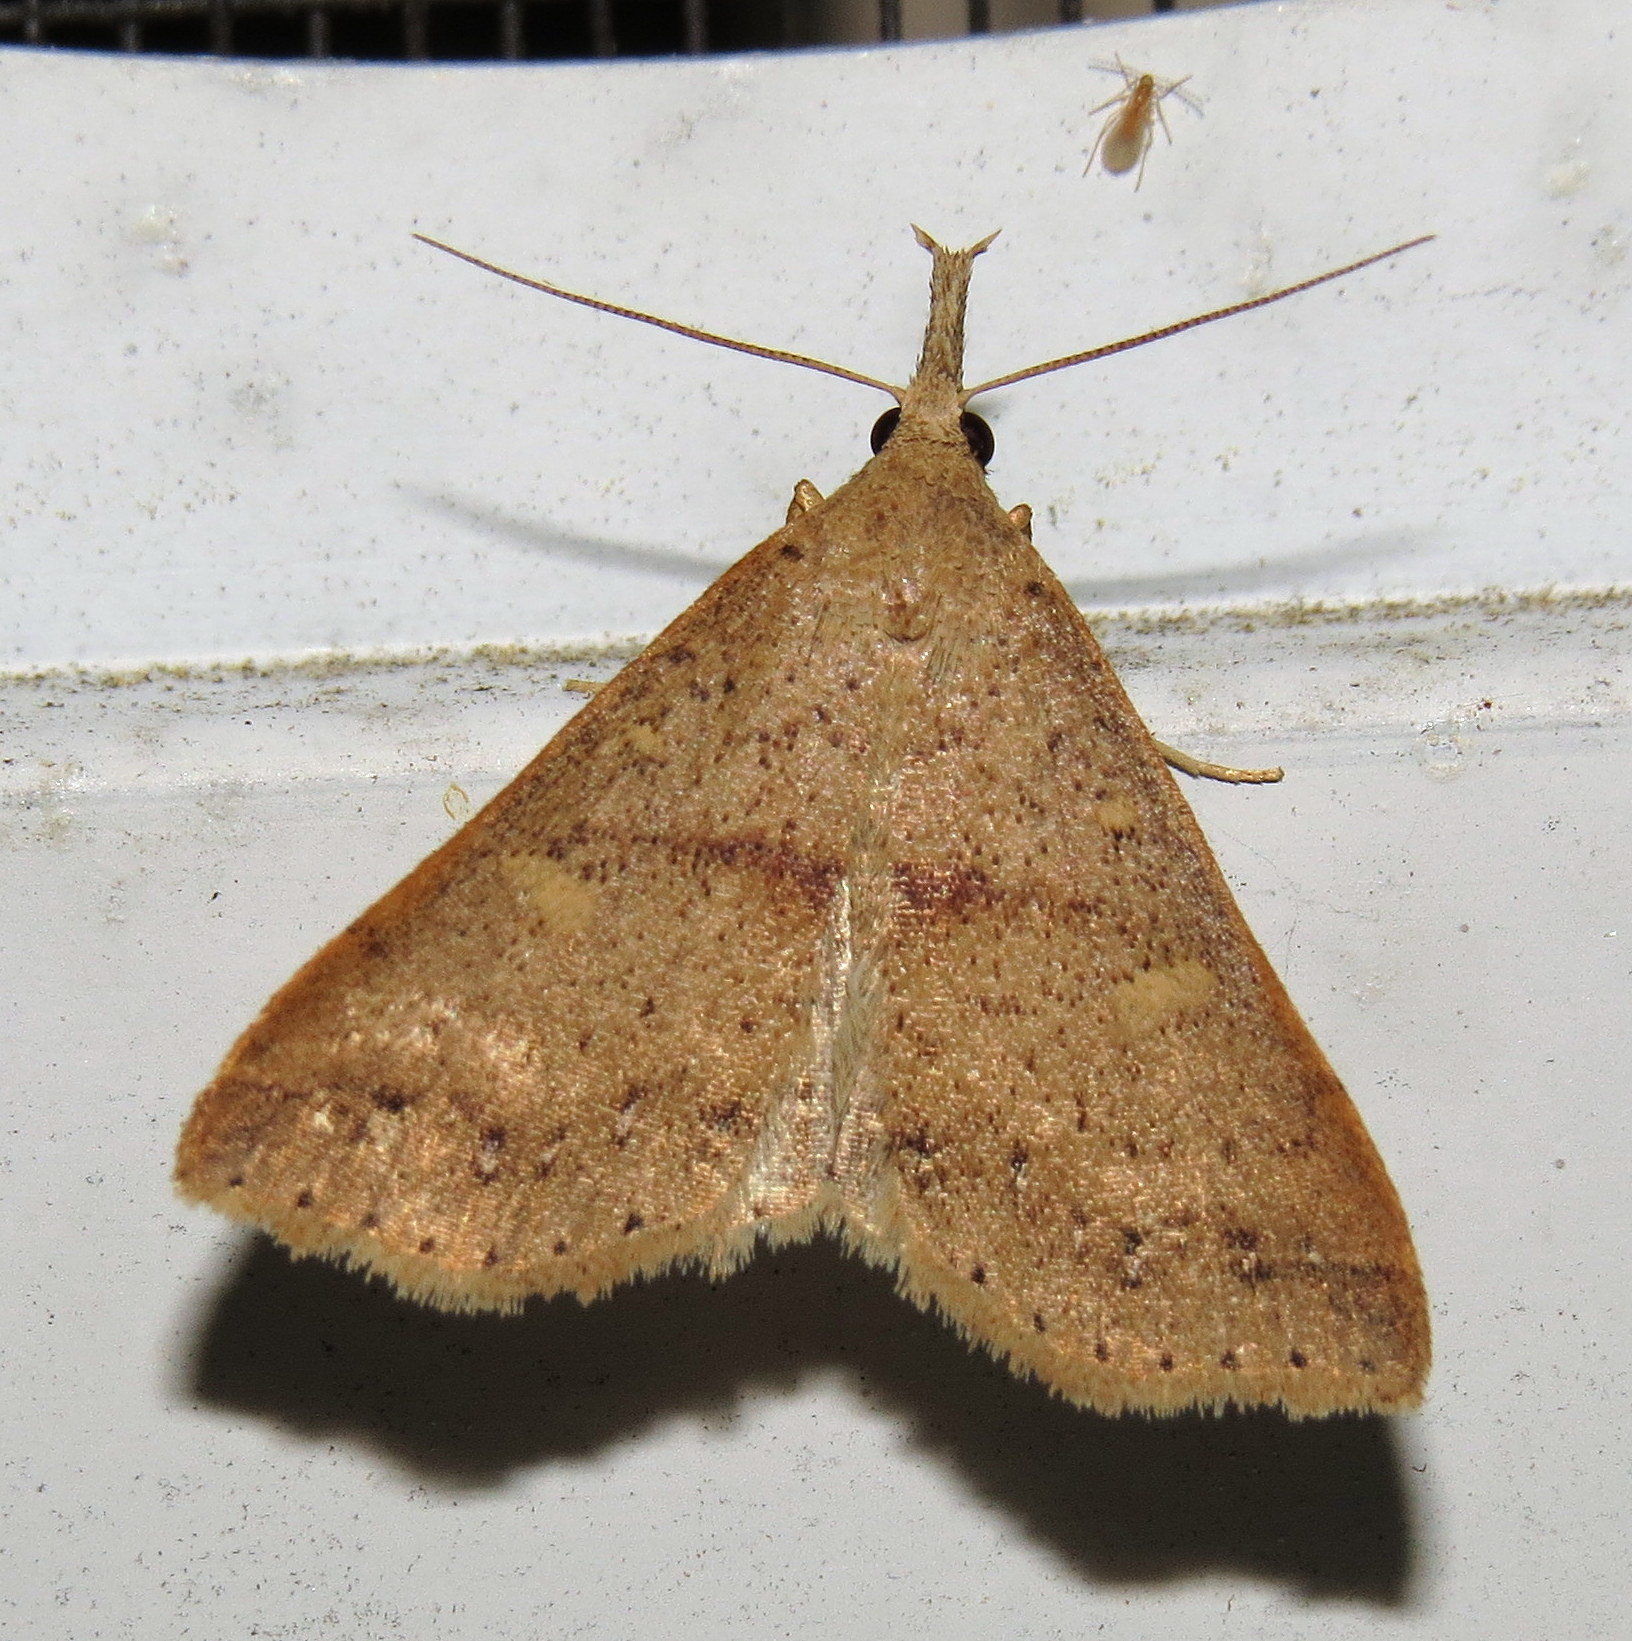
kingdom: Animalia
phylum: Arthropoda
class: Insecta
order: Lepidoptera
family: Erebidae
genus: Renia
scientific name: Renia salusalis
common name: Dotted renia moth
